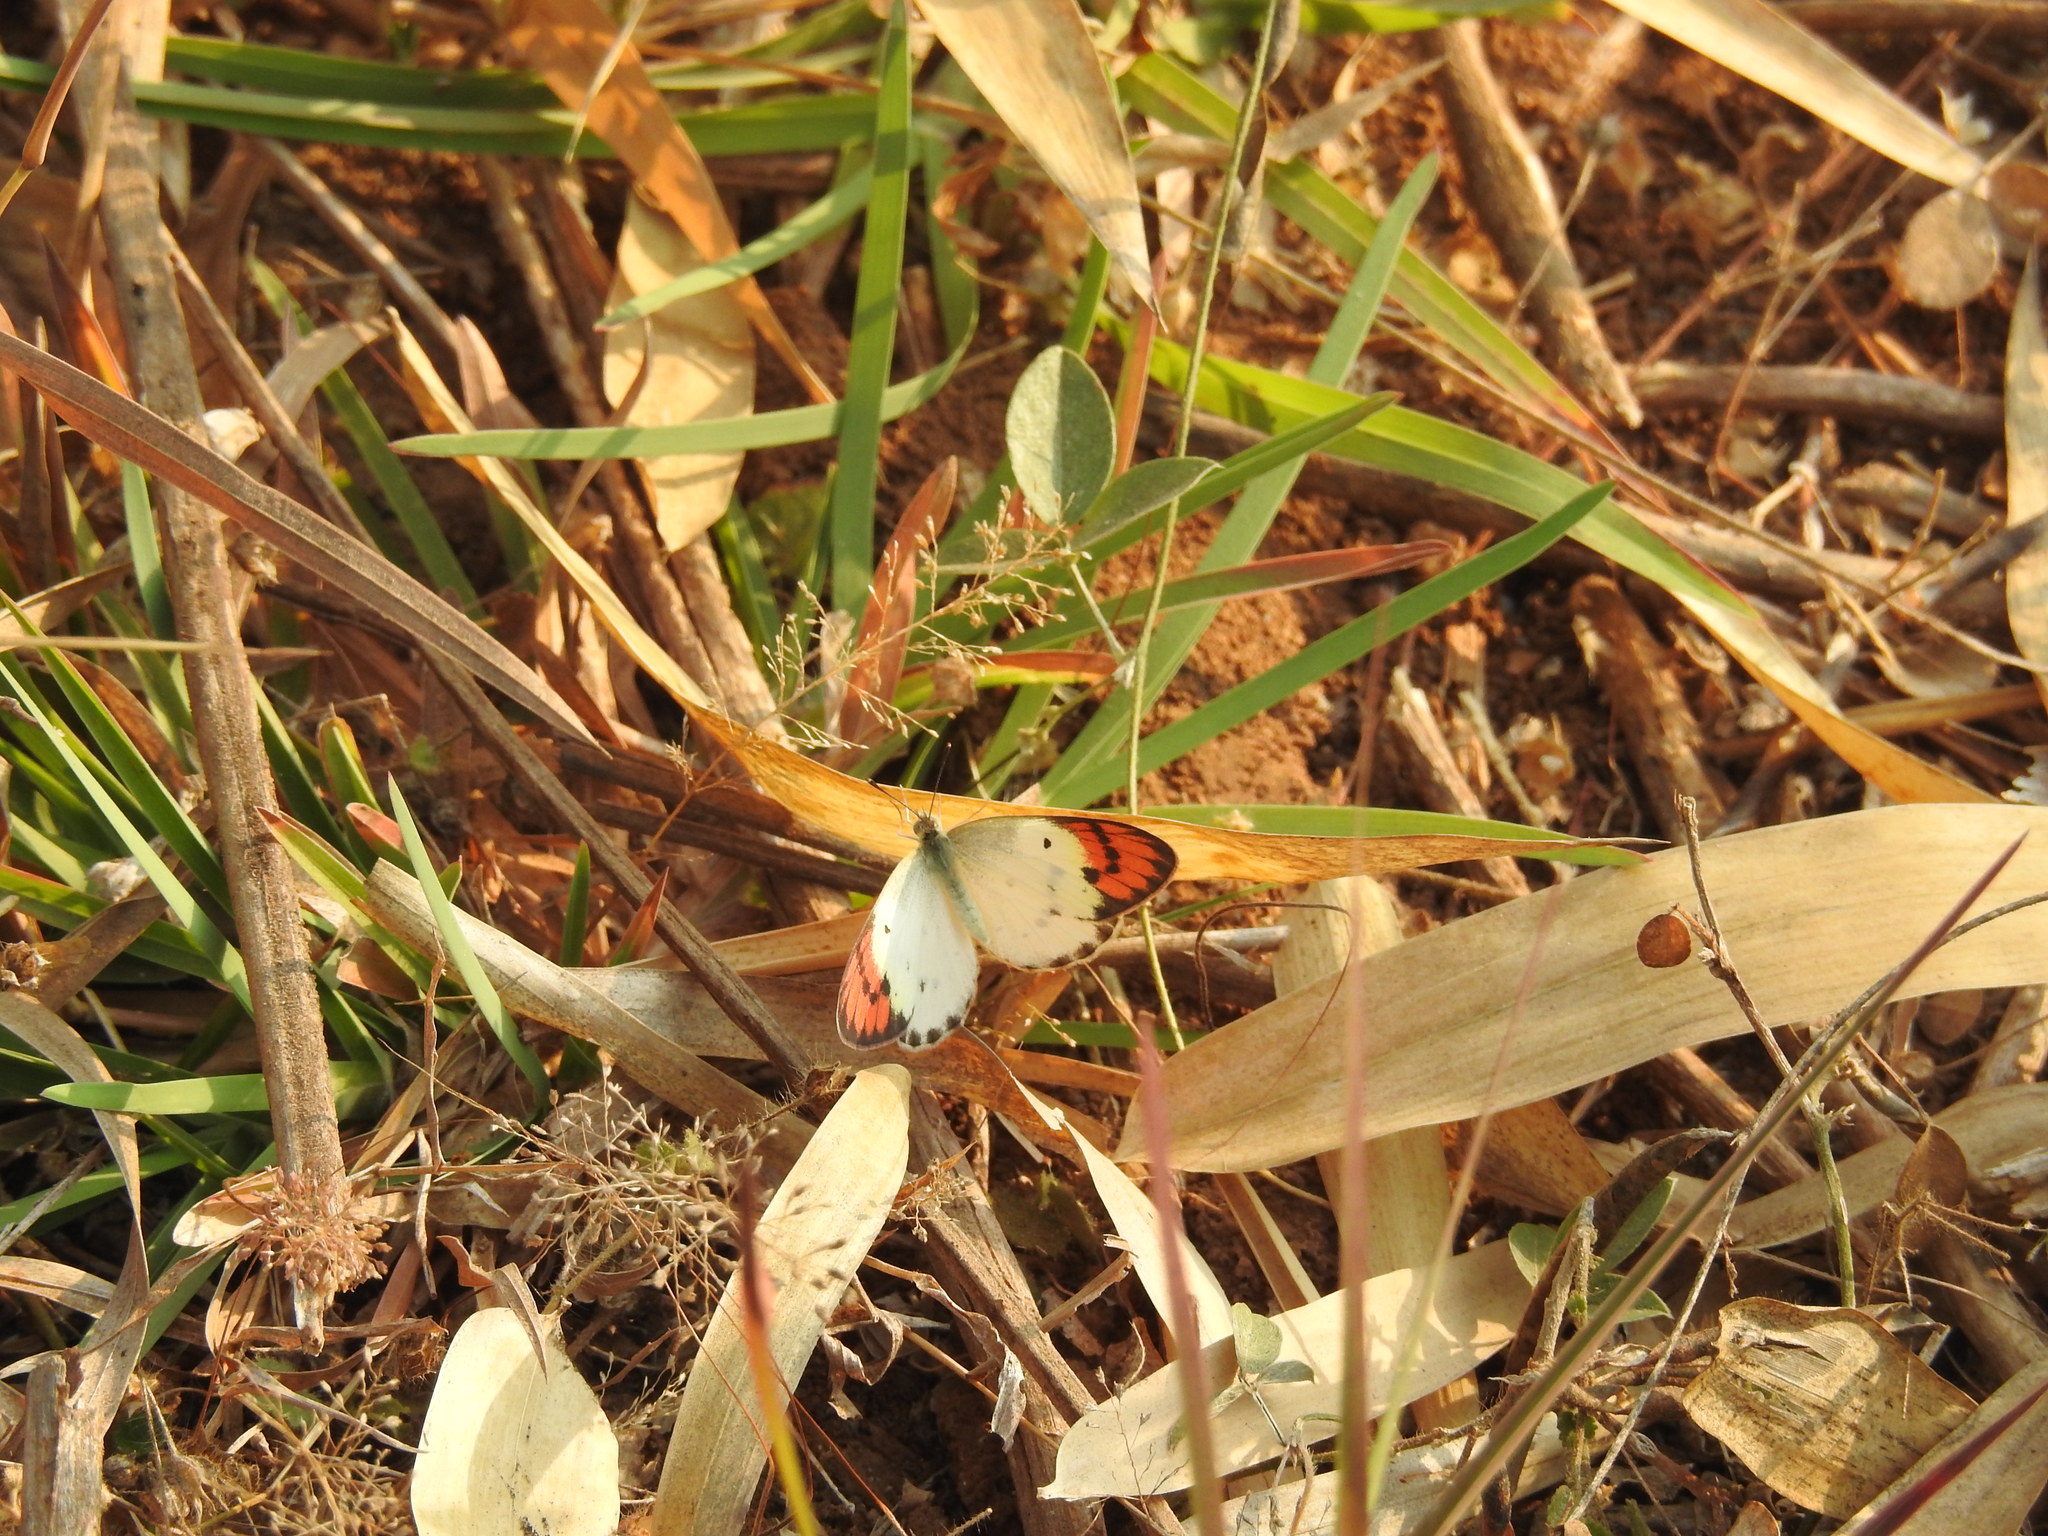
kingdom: Animalia
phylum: Arthropoda
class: Insecta
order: Lepidoptera
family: Pieridae
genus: Colotis
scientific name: Colotis danae
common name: Crimson tip
